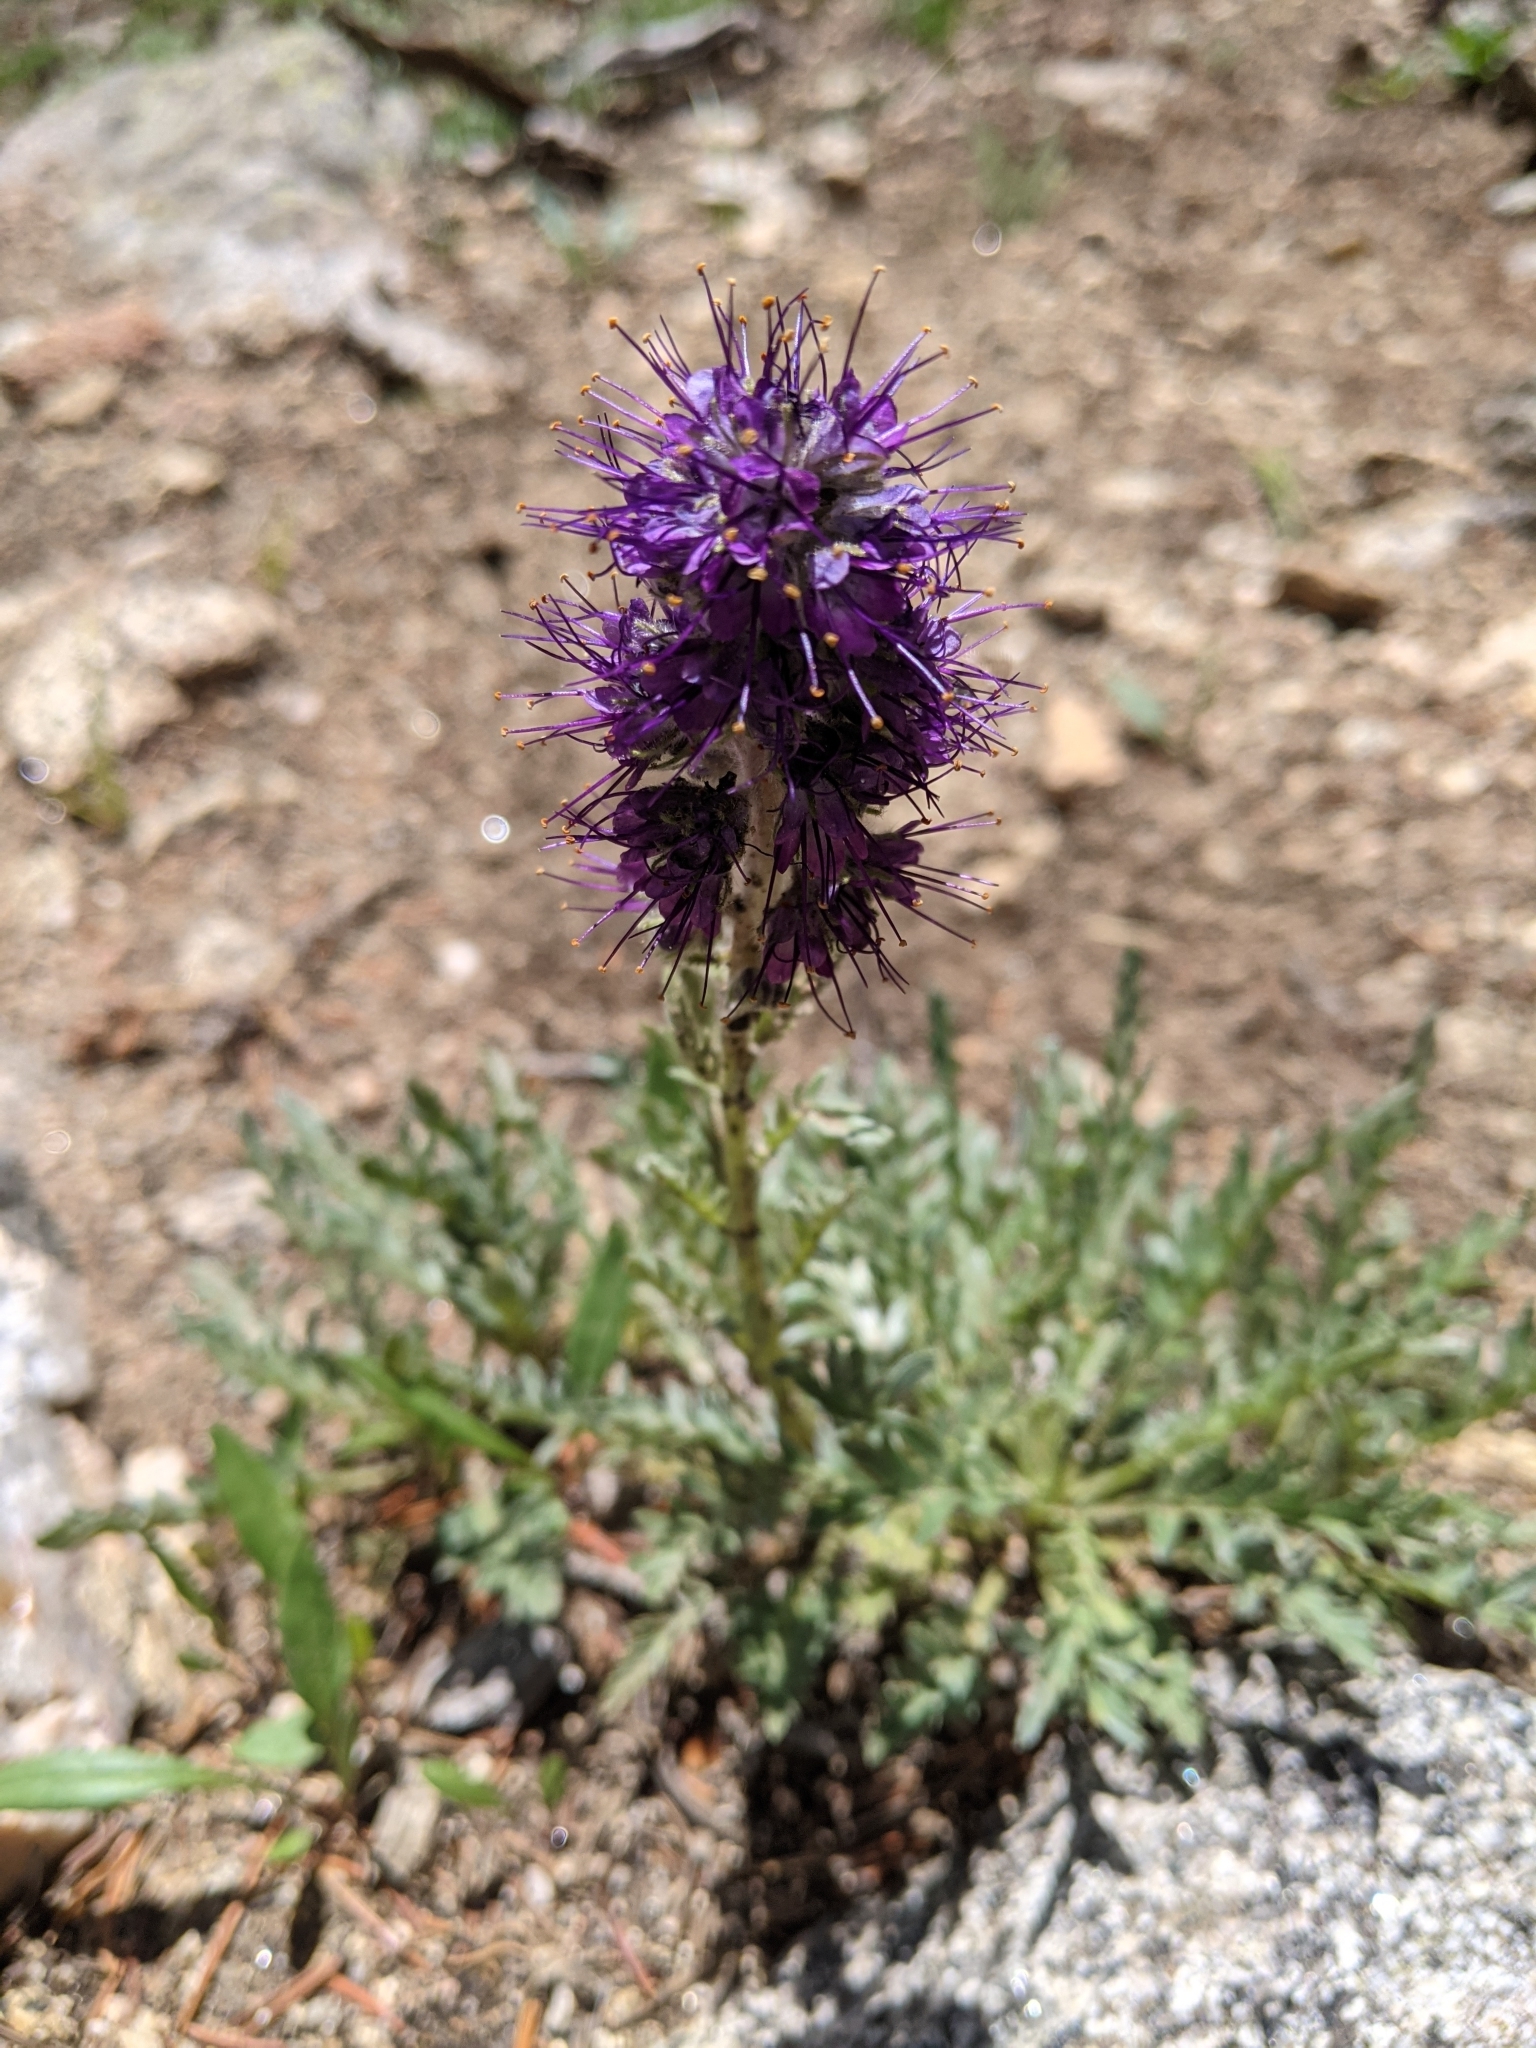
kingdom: Plantae
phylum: Tracheophyta
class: Magnoliopsida
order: Boraginales
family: Hydrophyllaceae
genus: Phacelia
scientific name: Phacelia sericea
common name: Silky phacelia
